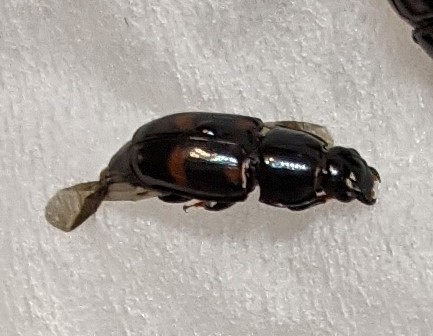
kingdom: Animalia
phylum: Arthropoda
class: Insecta
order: Coleoptera
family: Nitidulidae
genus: Glischrochilus
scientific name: Glischrochilus sanguinolentus
